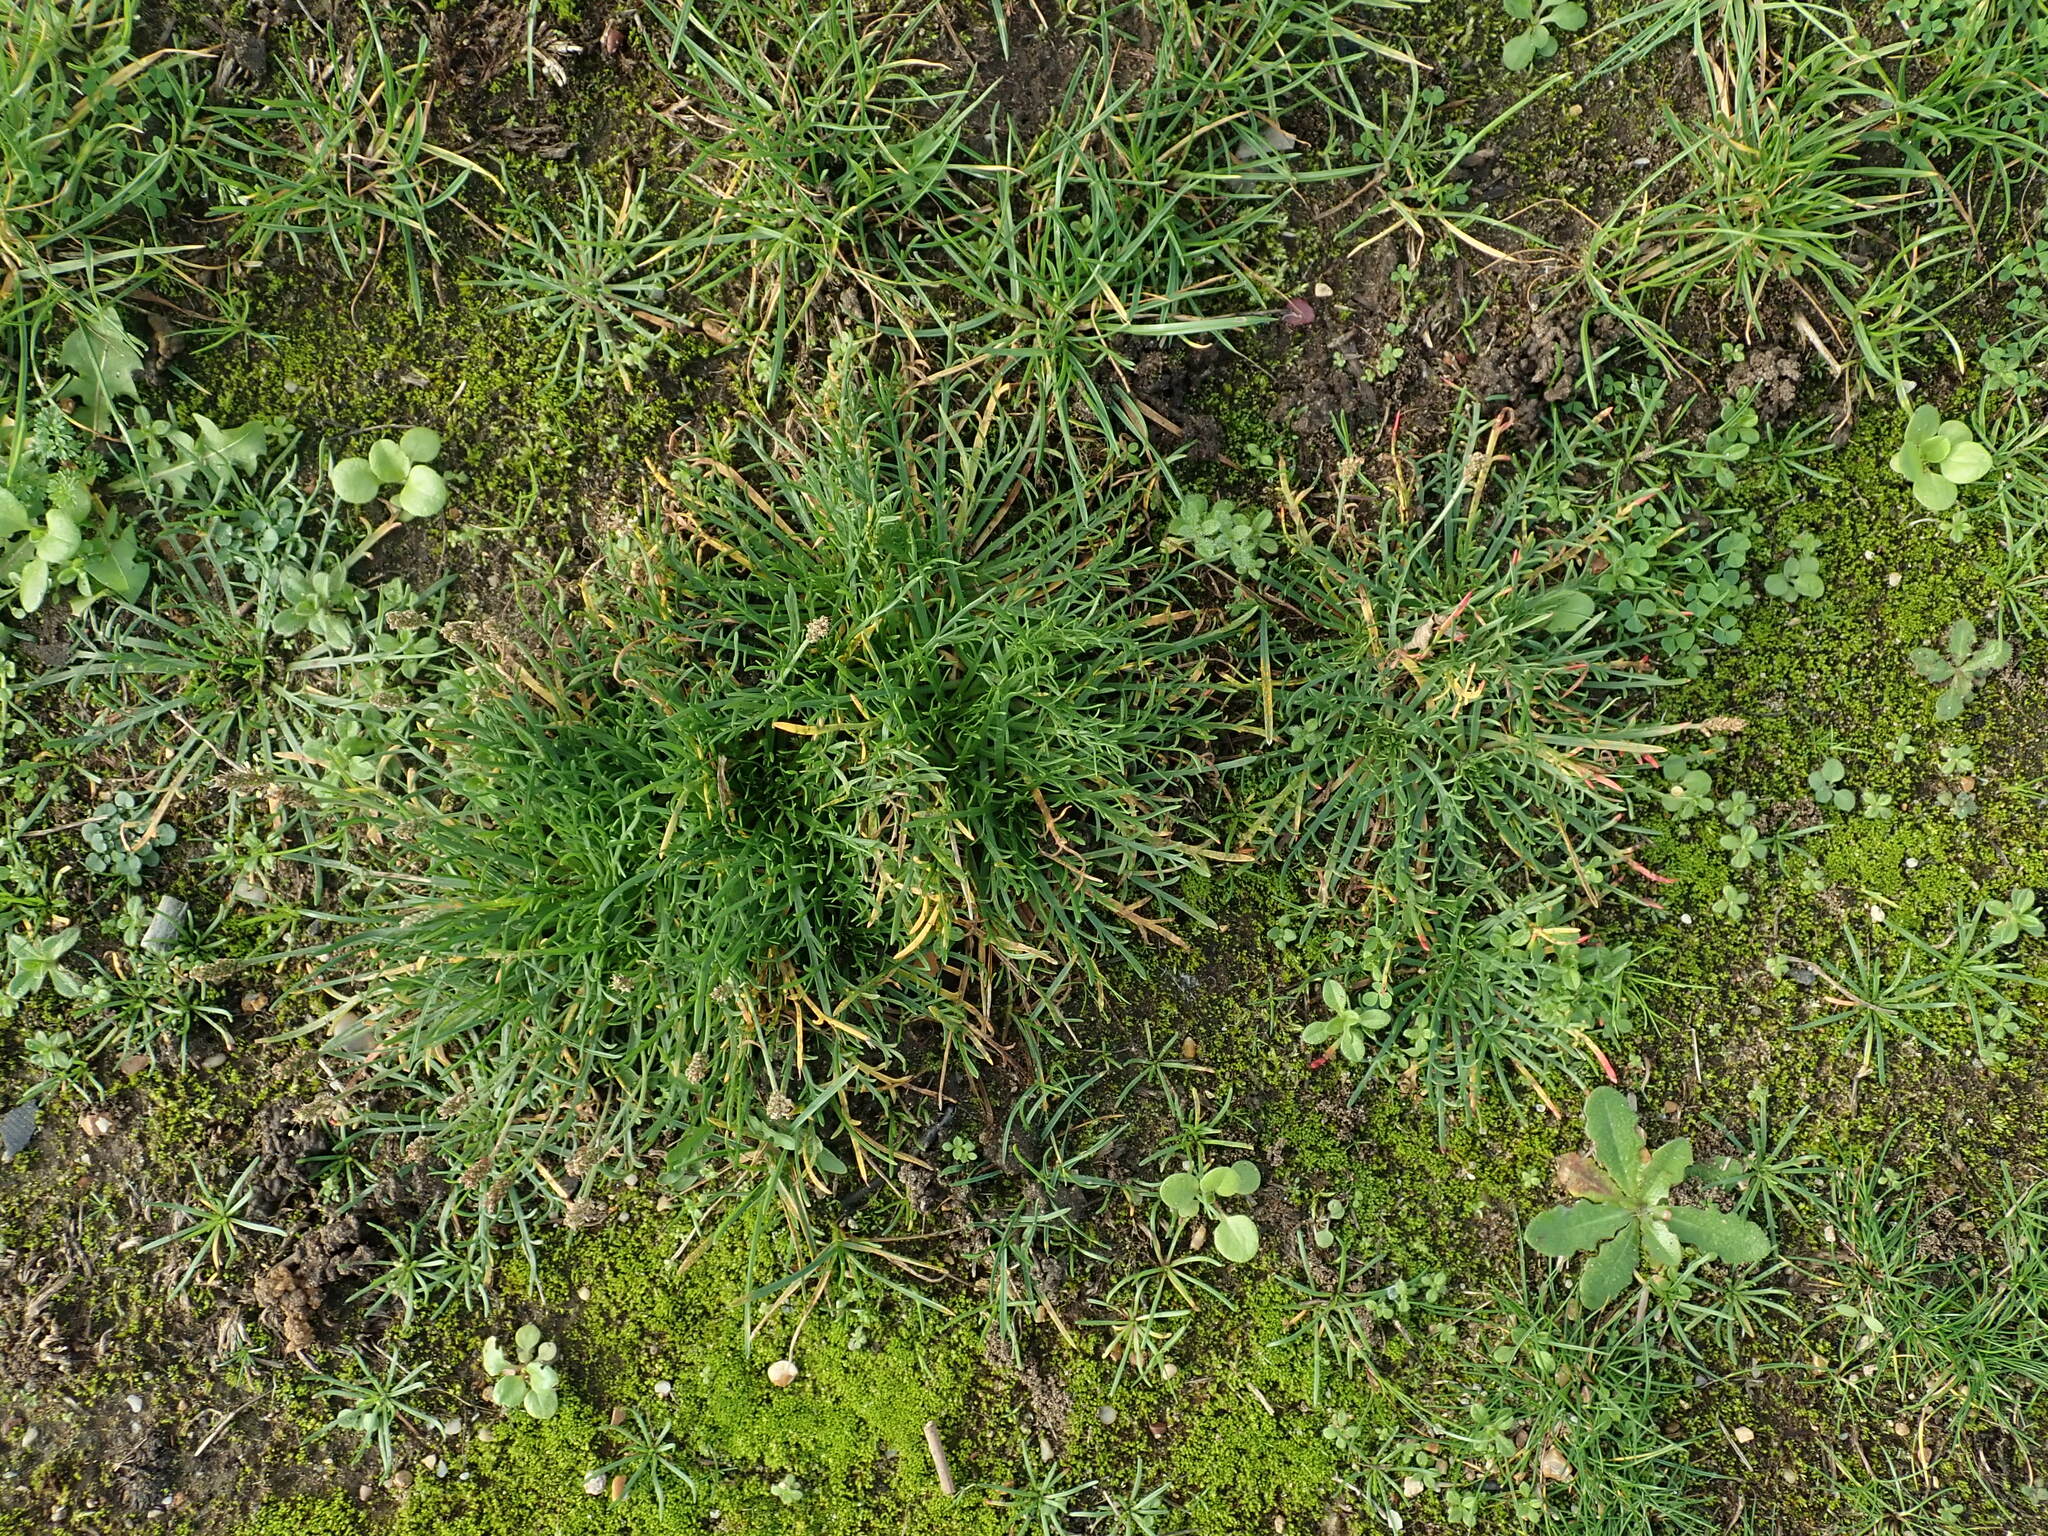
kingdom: Plantae
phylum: Tracheophyta
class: Magnoliopsida
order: Lamiales
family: Plantaginaceae
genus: Plantago
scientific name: Plantago coronopus
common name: Buck's-horn plantain
